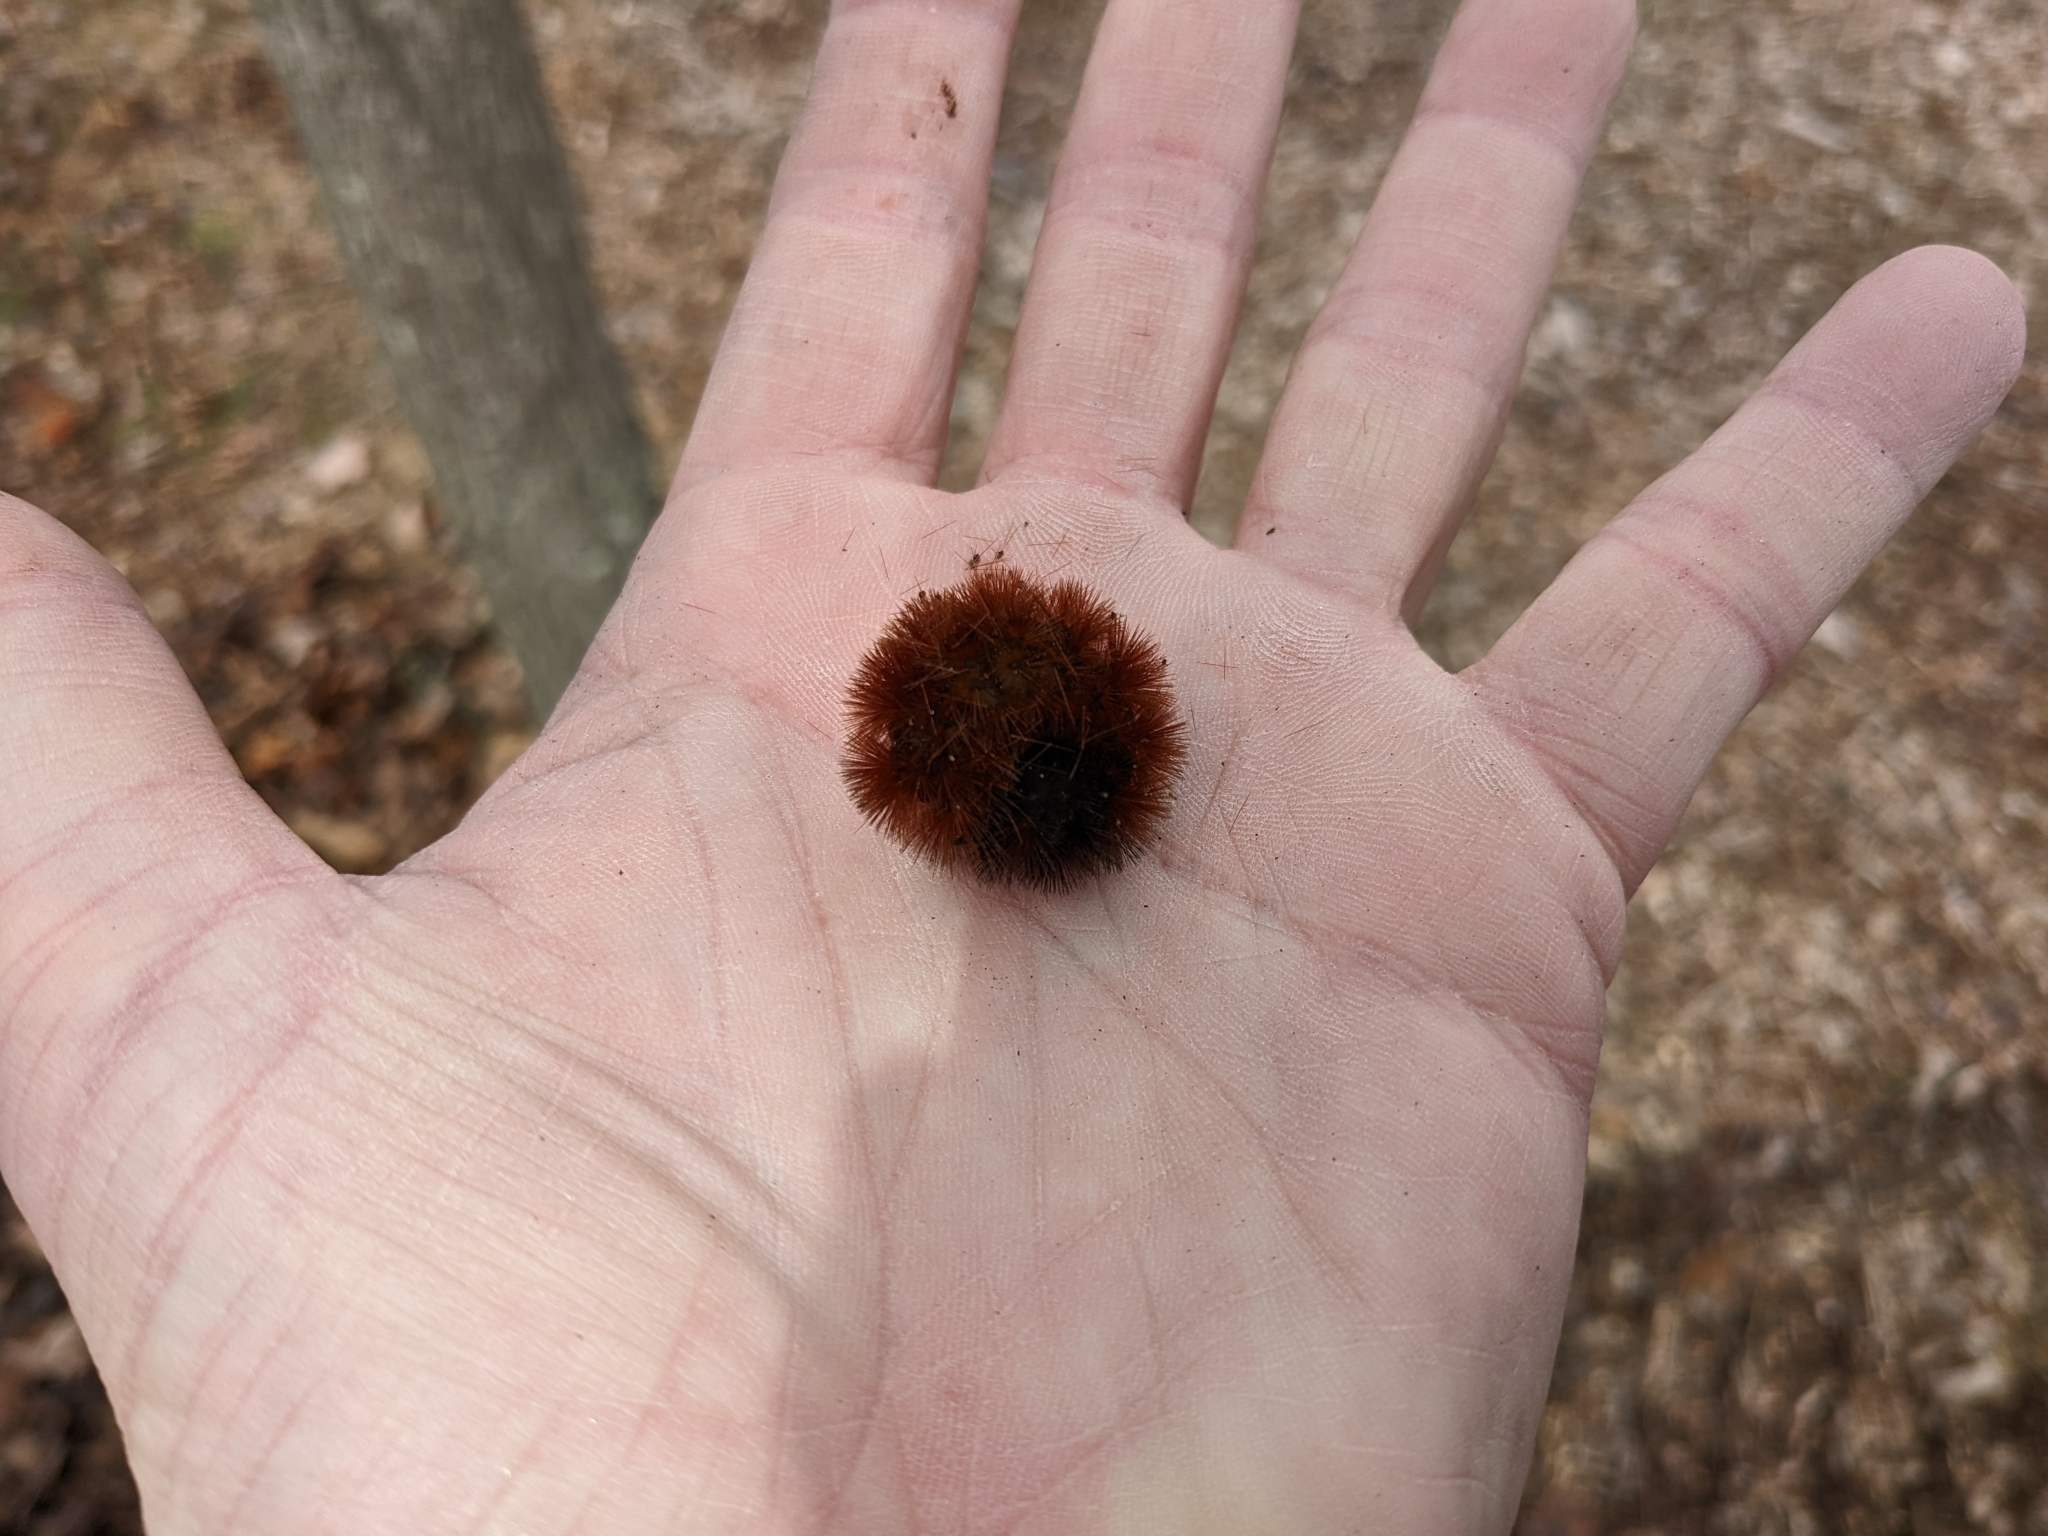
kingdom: Animalia
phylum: Arthropoda
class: Insecta
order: Lepidoptera
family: Erebidae
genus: Pyrrharctia
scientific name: Pyrrharctia isabella
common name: Isabella tiger moth
